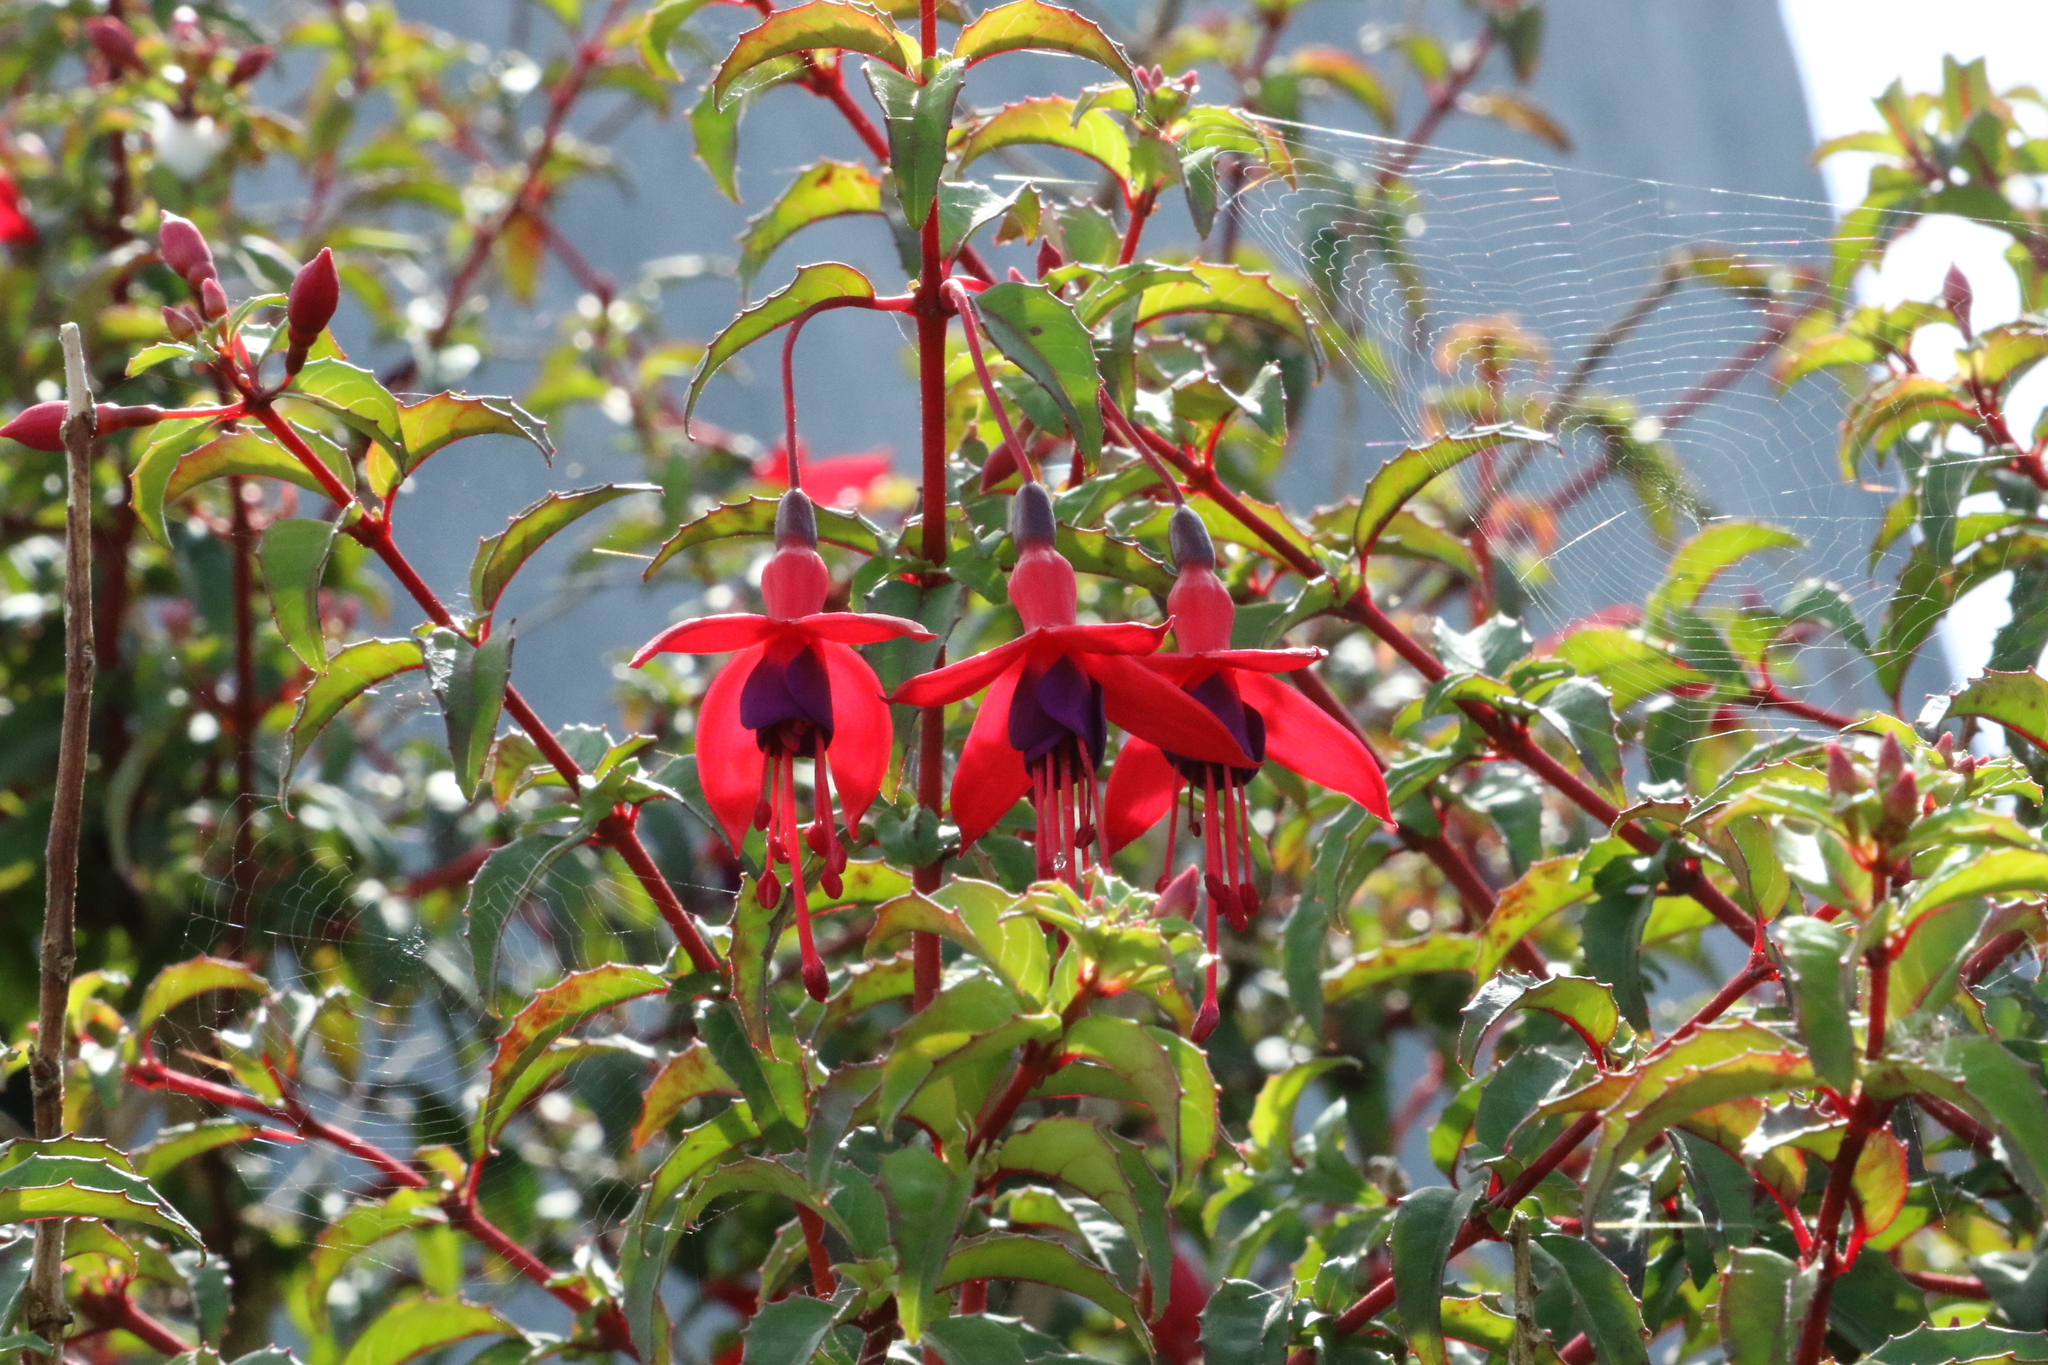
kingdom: Plantae
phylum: Tracheophyta
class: Magnoliopsida
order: Myrtales
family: Onagraceae
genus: Fuchsia
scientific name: Fuchsia magellanica
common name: Hardy fuchsia
